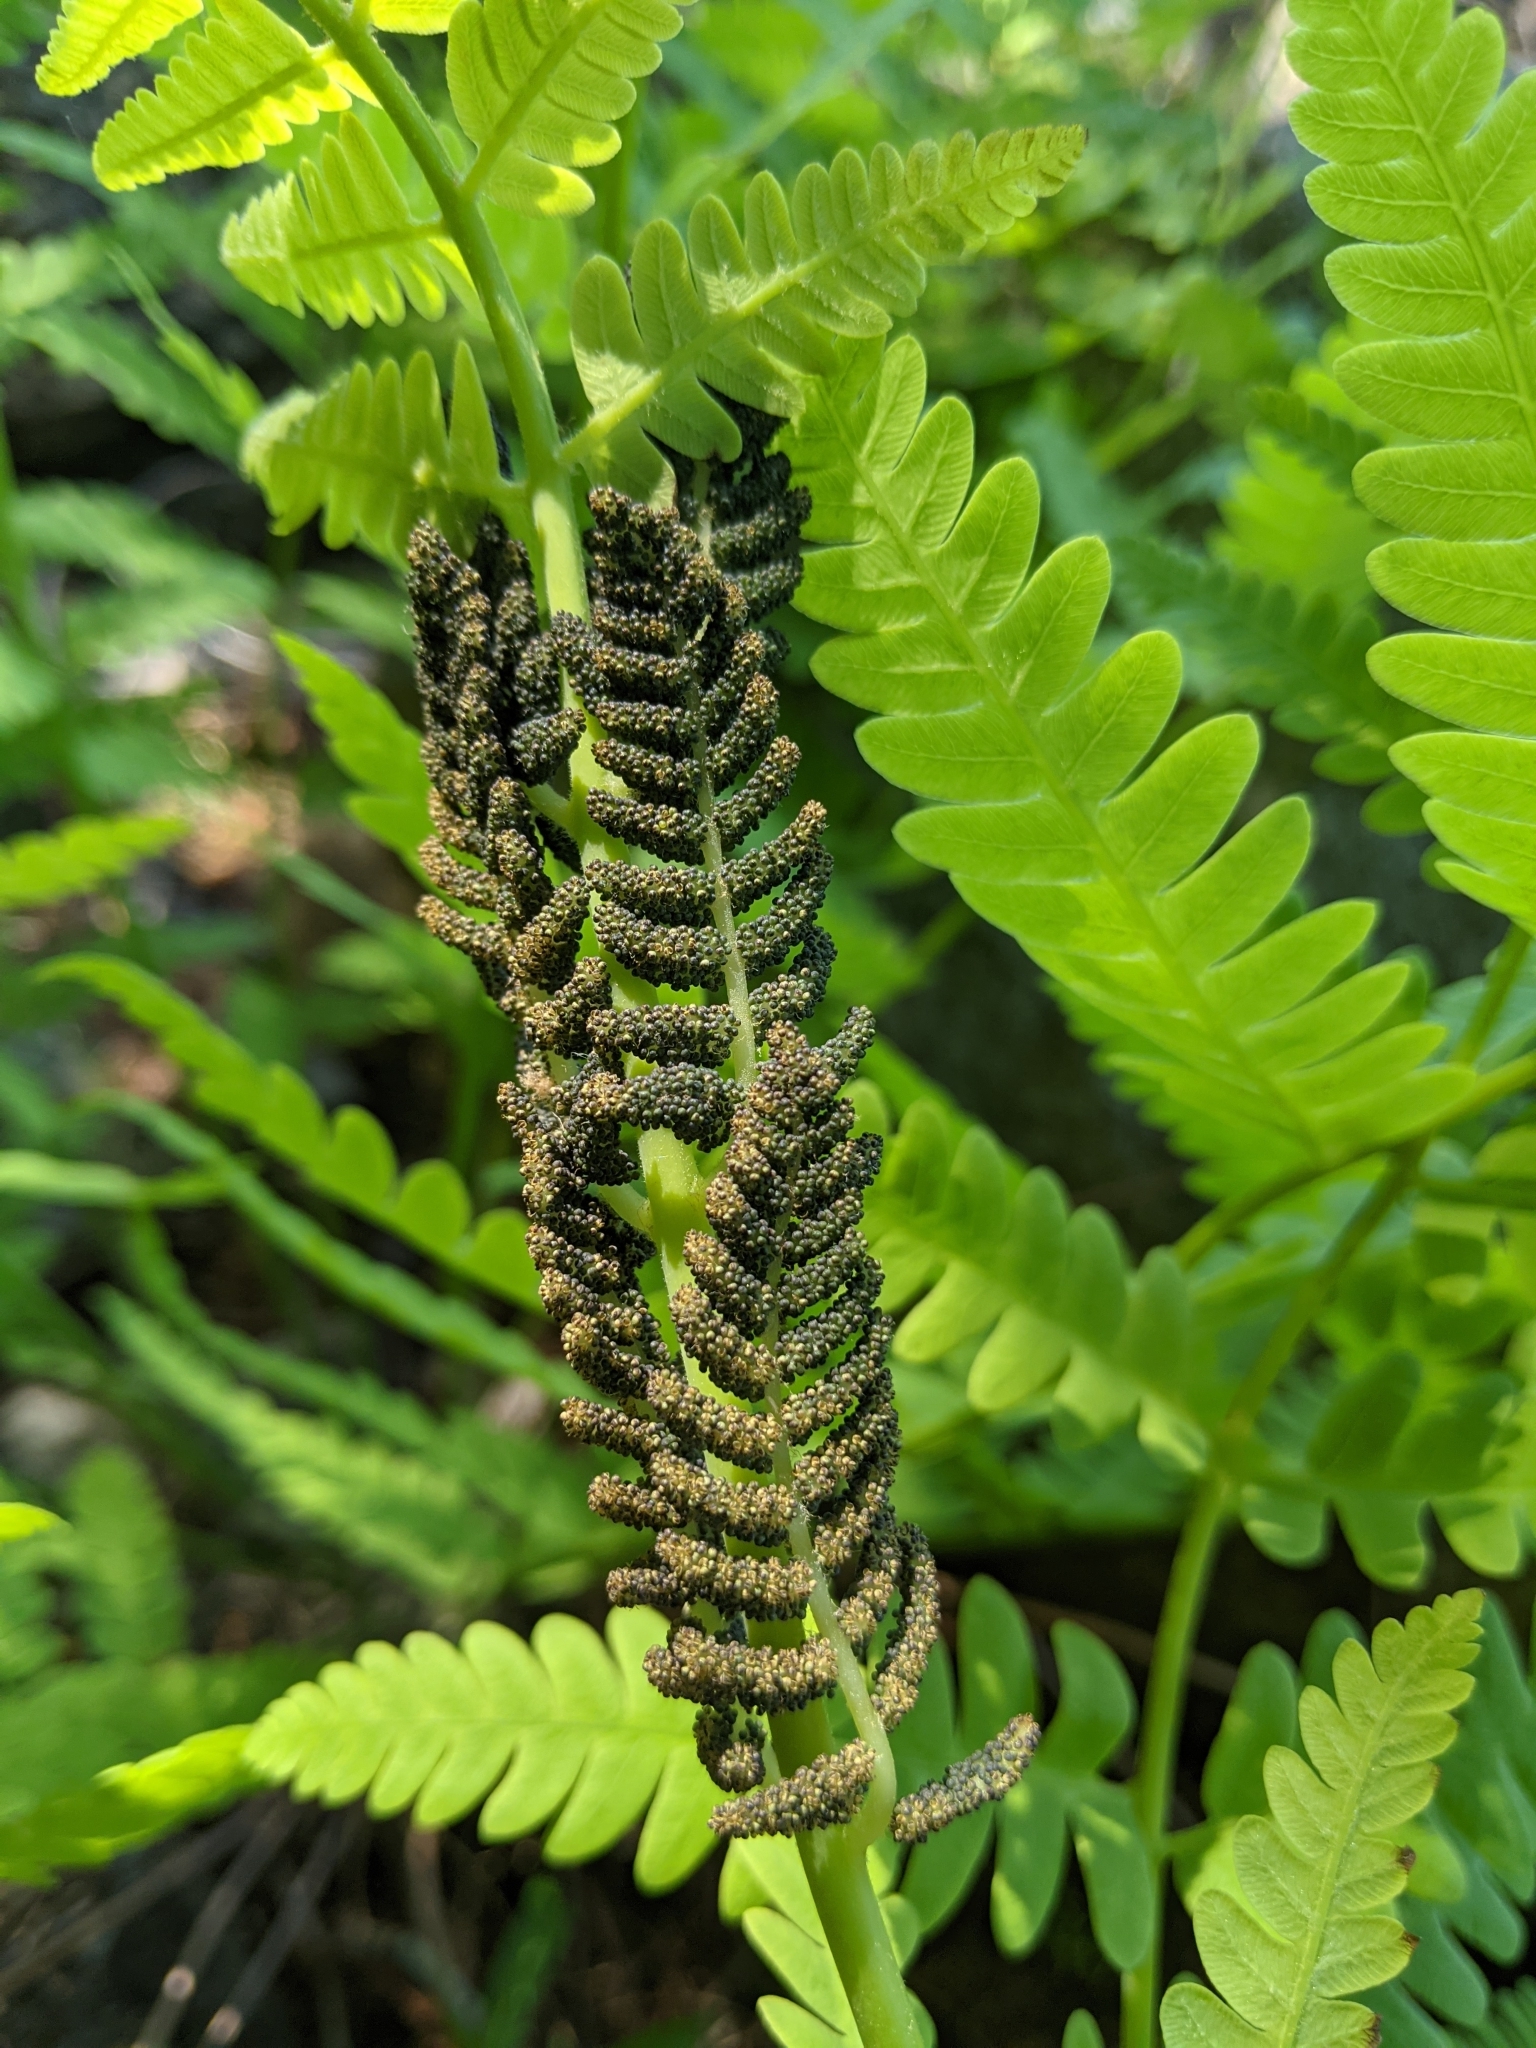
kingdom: Plantae
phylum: Tracheophyta
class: Polypodiopsida
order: Osmundales
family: Osmundaceae
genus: Claytosmunda
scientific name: Claytosmunda claytoniana
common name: Clayton's fern
